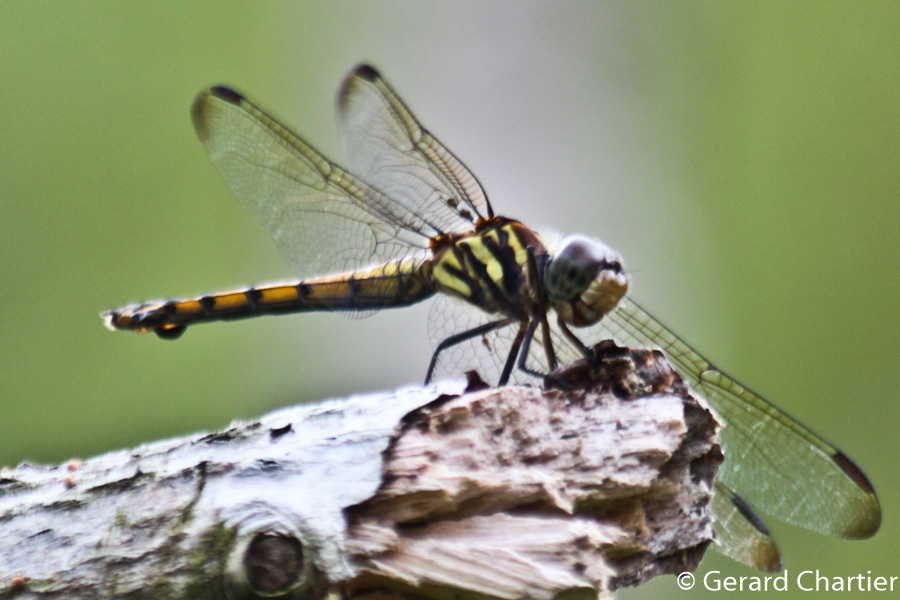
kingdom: Animalia
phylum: Arthropoda
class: Insecta
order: Odonata
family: Libellulidae
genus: Potamarcha
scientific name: Potamarcha congener
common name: Blue chaser
